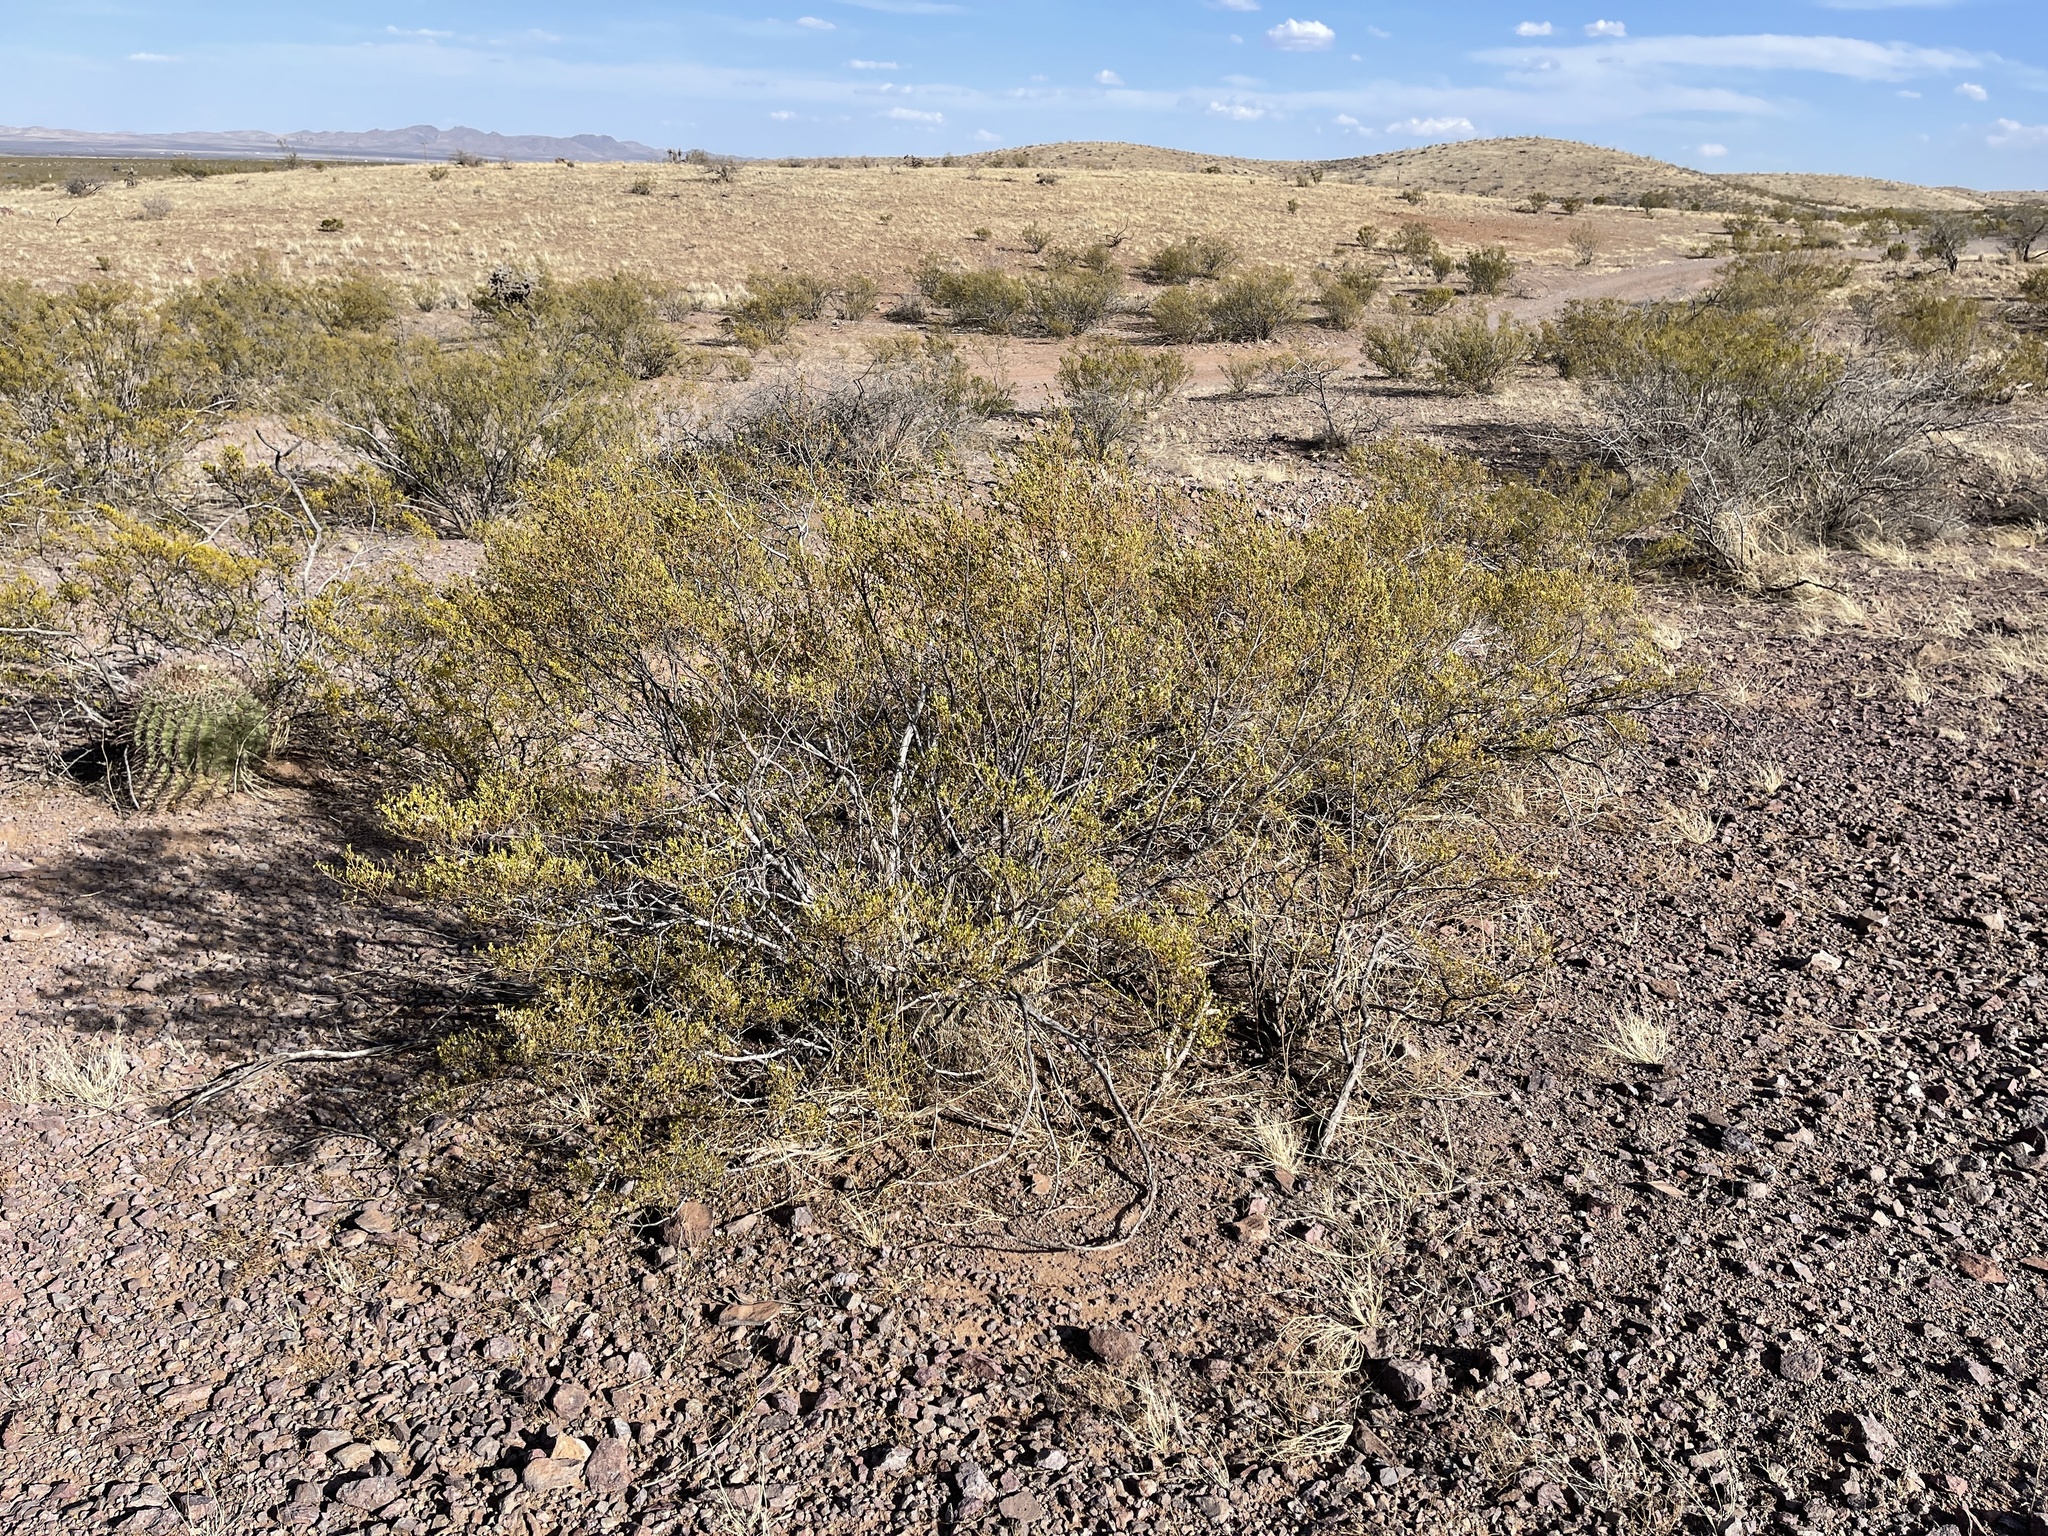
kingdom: Plantae
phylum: Tracheophyta
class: Magnoliopsida
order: Zygophyllales
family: Zygophyllaceae
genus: Larrea
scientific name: Larrea tridentata
